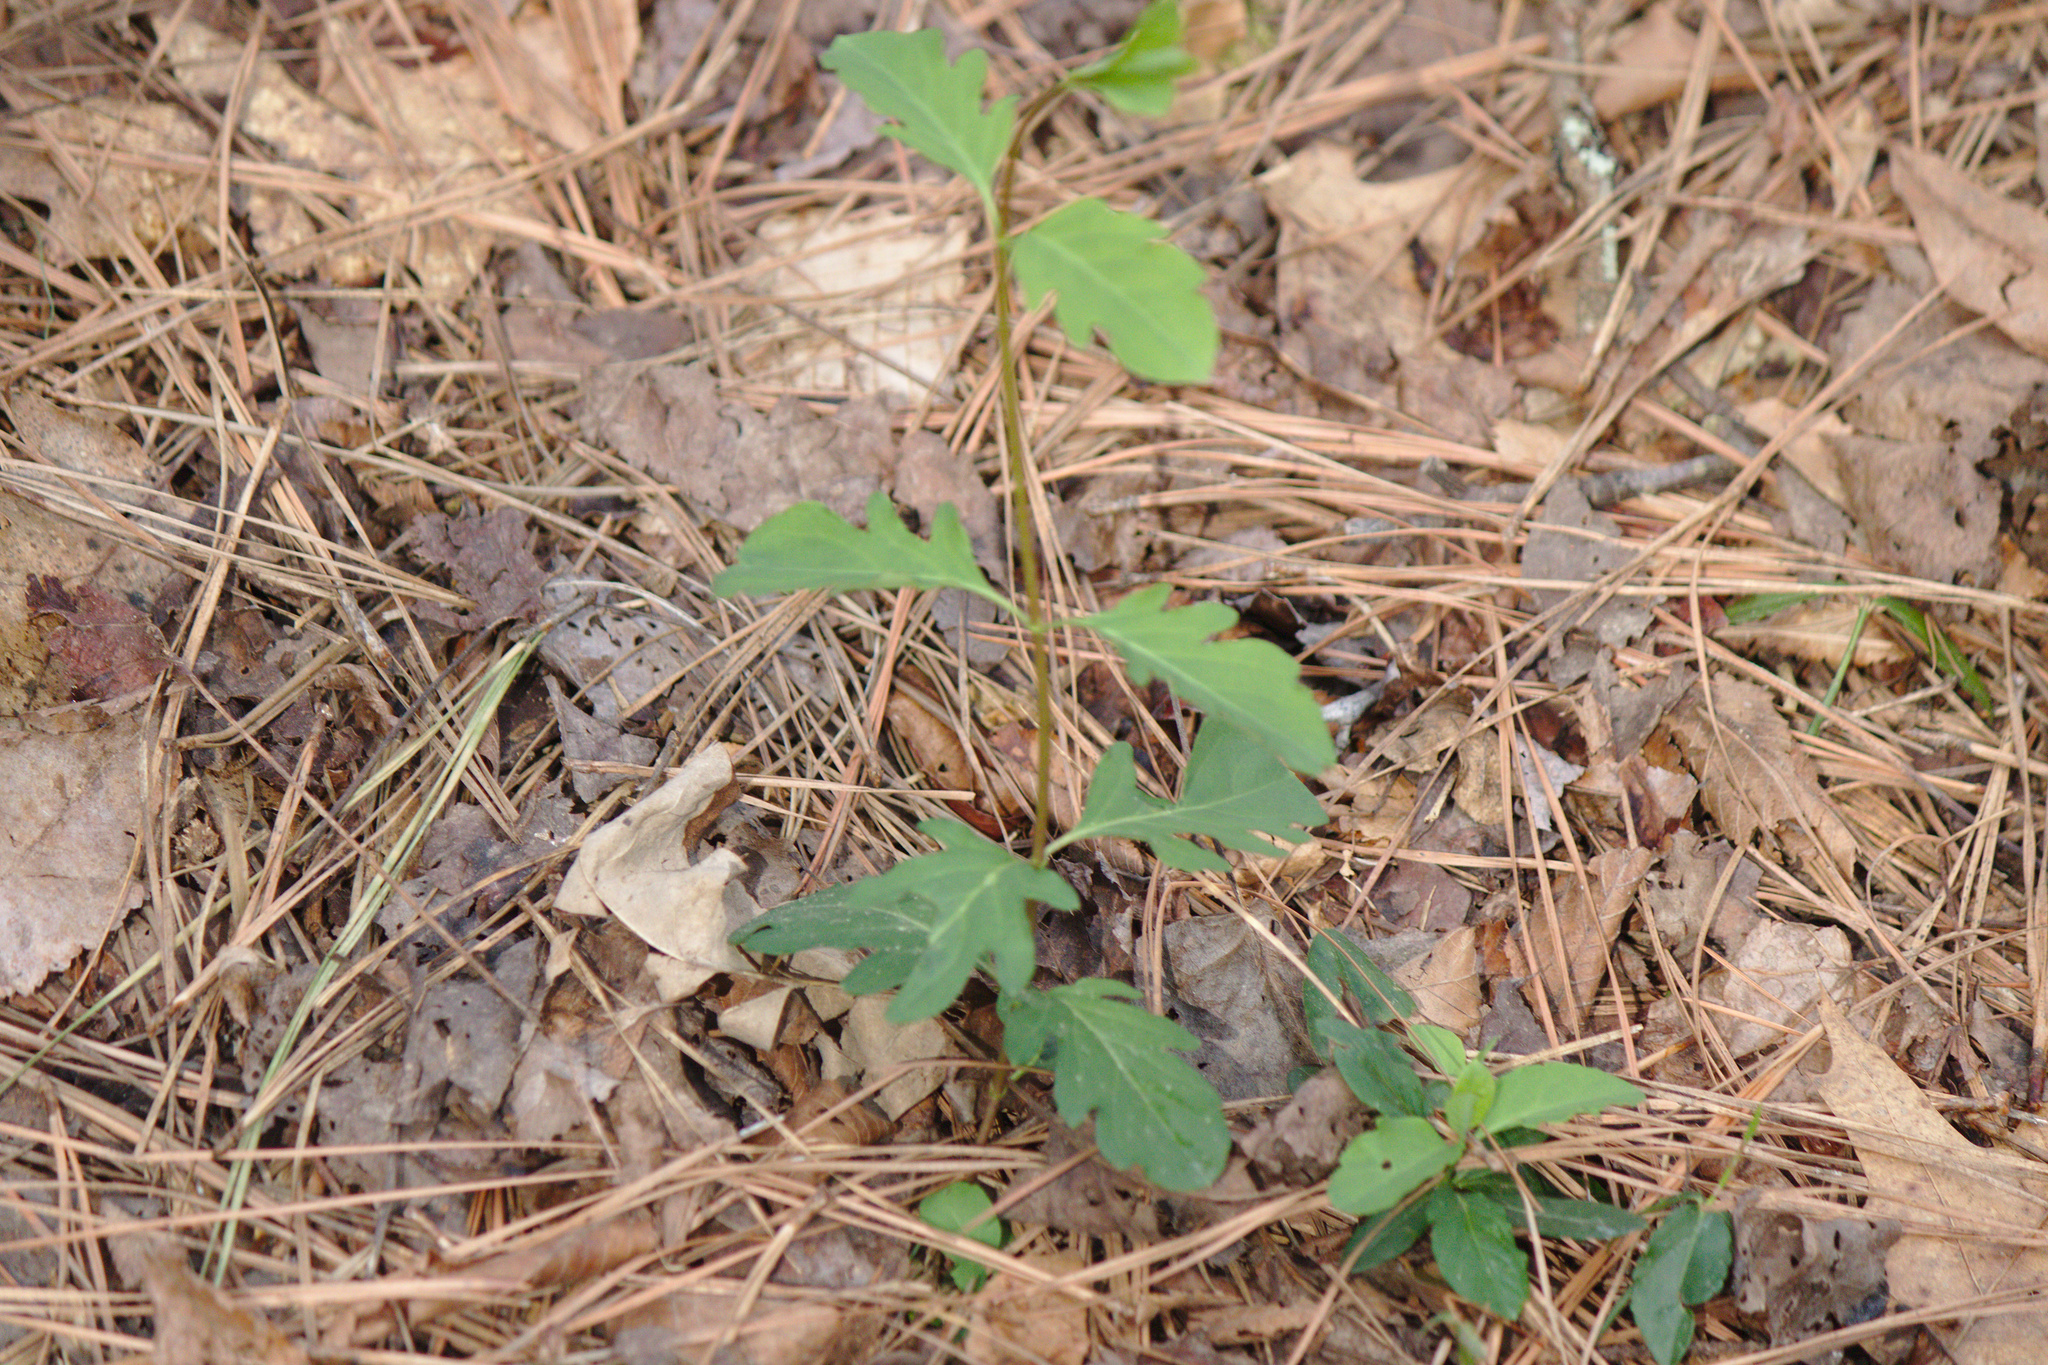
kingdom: Plantae
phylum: Tracheophyta
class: Magnoliopsida
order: Dipsacales
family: Caprifoliaceae
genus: Lonicera
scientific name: Lonicera japonica
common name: Japanese honeysuckle
